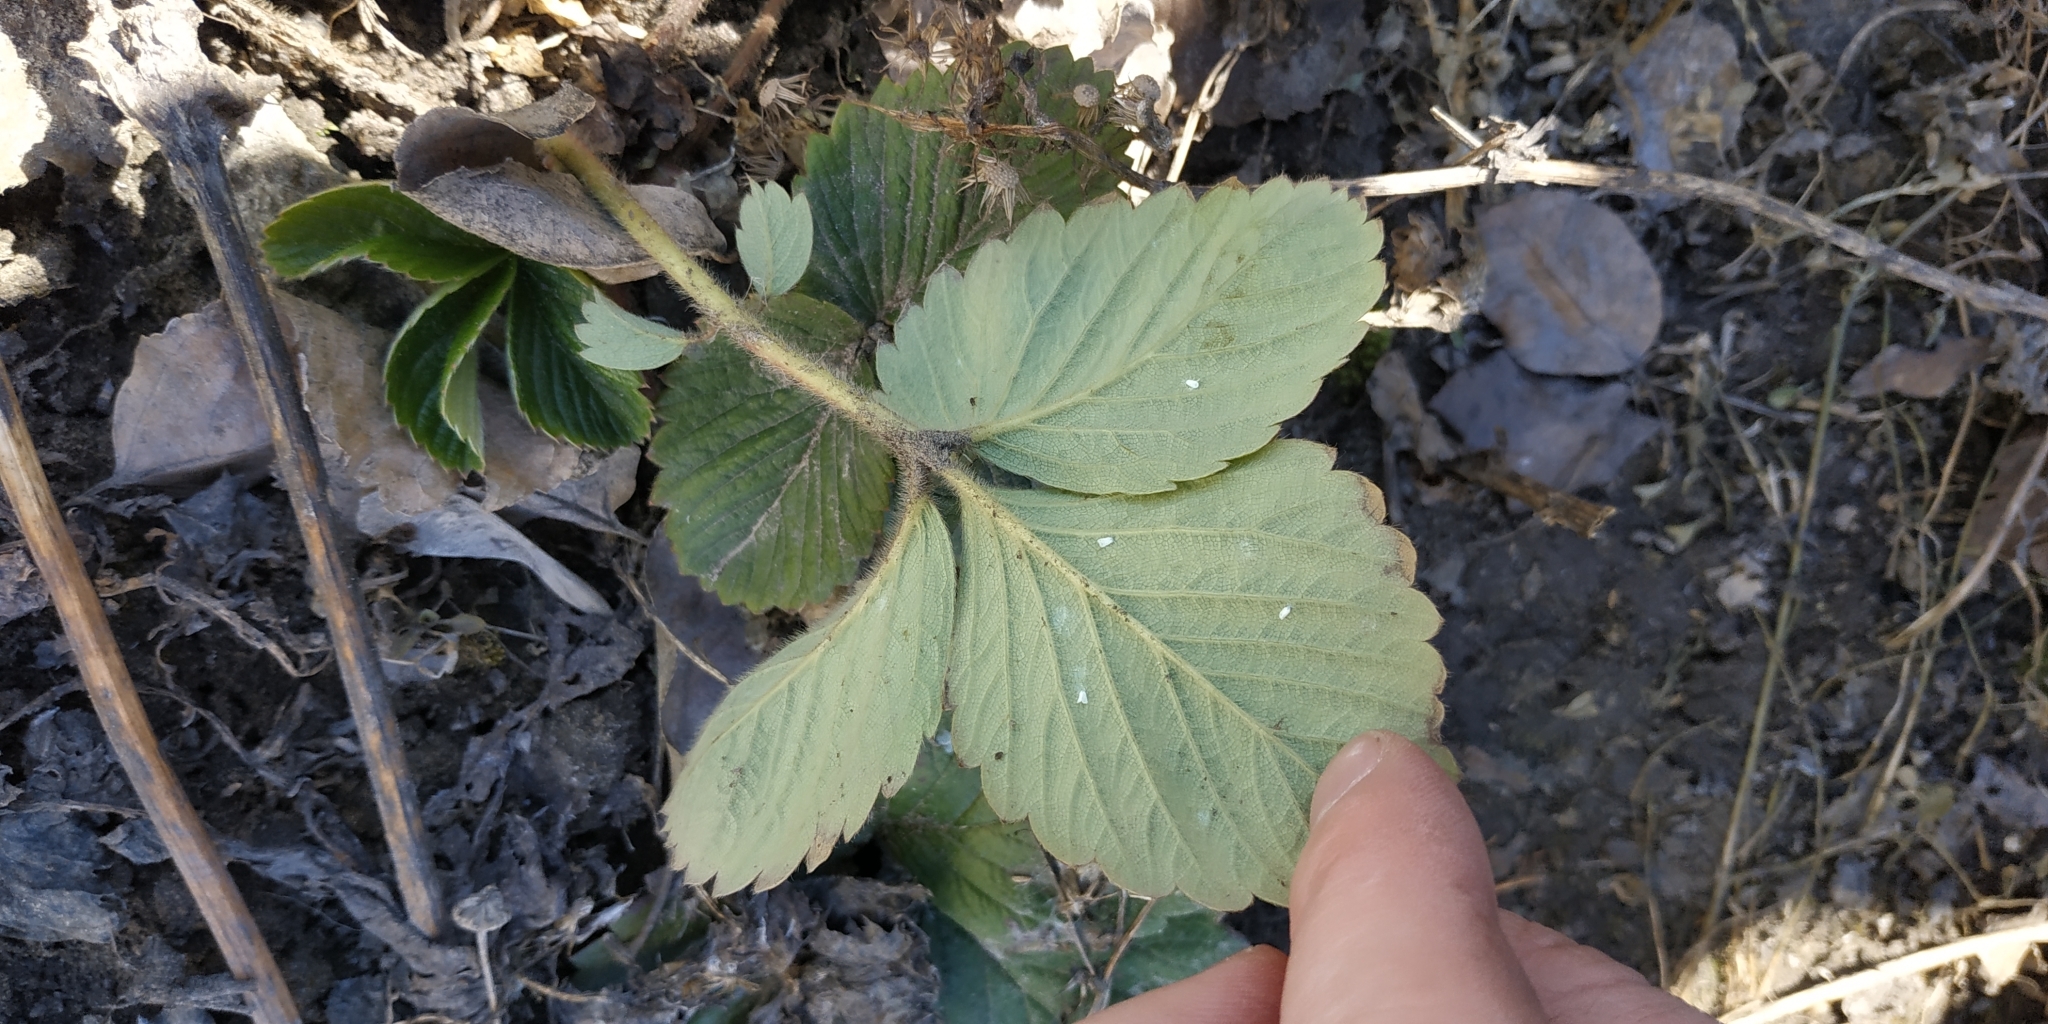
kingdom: Plantae
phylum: Tracheophyta
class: Magnoliopsida
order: Rosales
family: Rosaceae
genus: Fragaria
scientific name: Fragaria ananassa
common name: Garden strawberry
